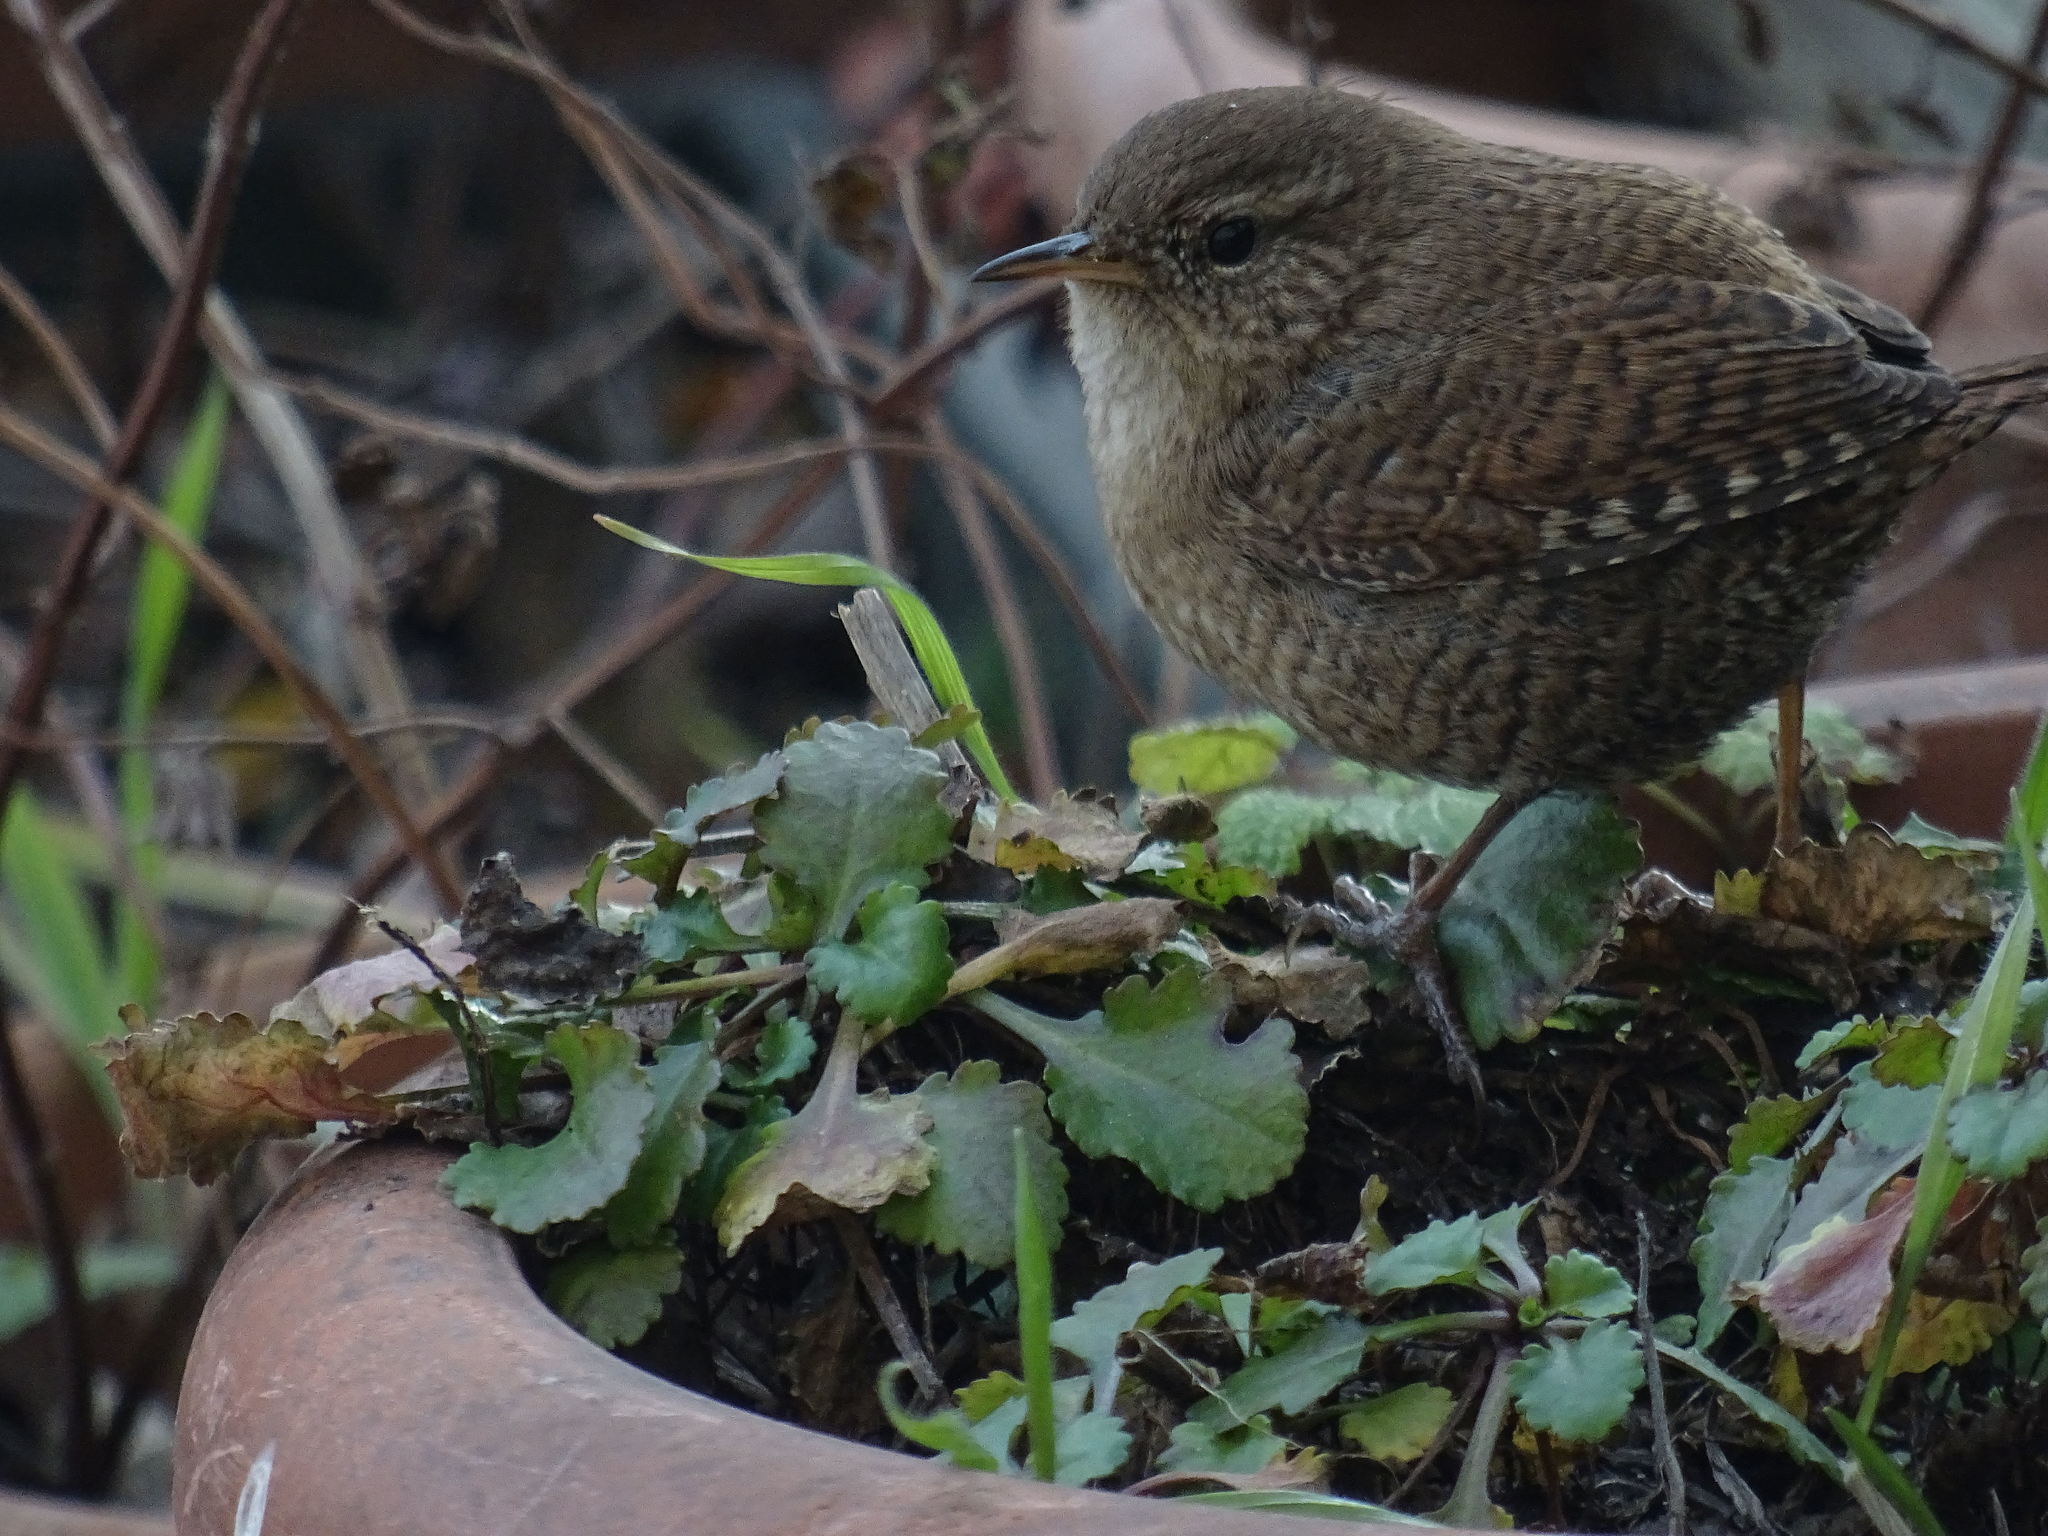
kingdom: Animalia
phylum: Chordata
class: Aves
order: Passeriformes
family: Troglodytidae
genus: Troglodytes
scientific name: Troglodytes troglodytes
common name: Eurasian wren
